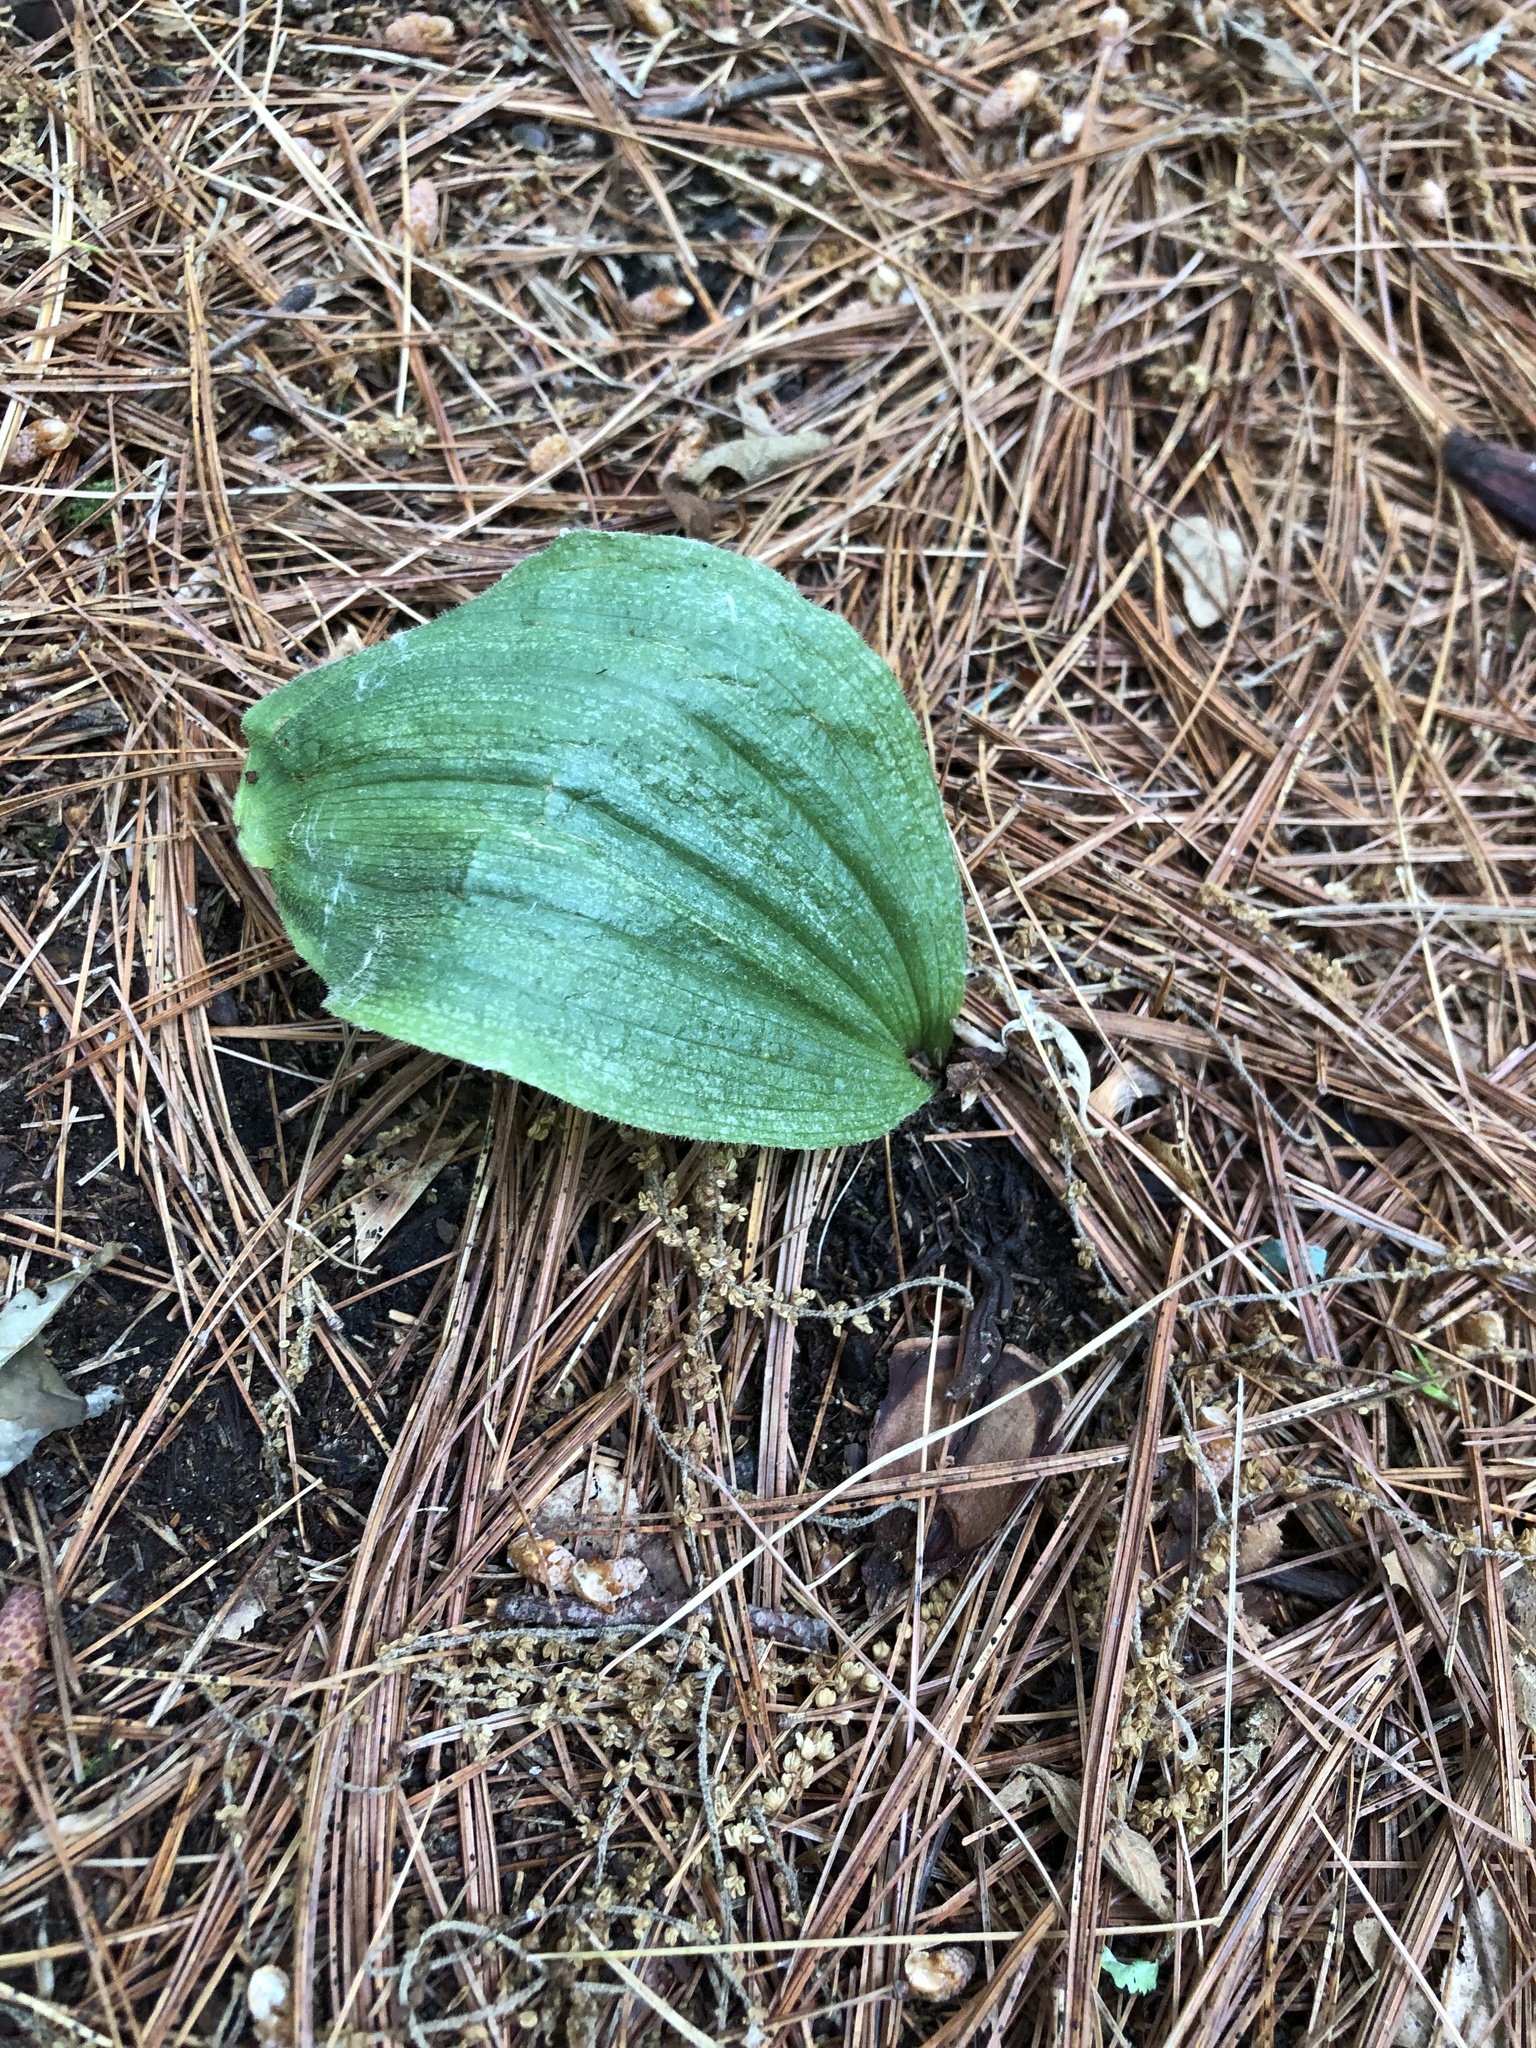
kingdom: Plantae
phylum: Tracheophyta
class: Liliopsida
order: Asparagales
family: Orchidaceae
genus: Cypripedium
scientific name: Cypripedium acaule
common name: Pink lady's-slipper
